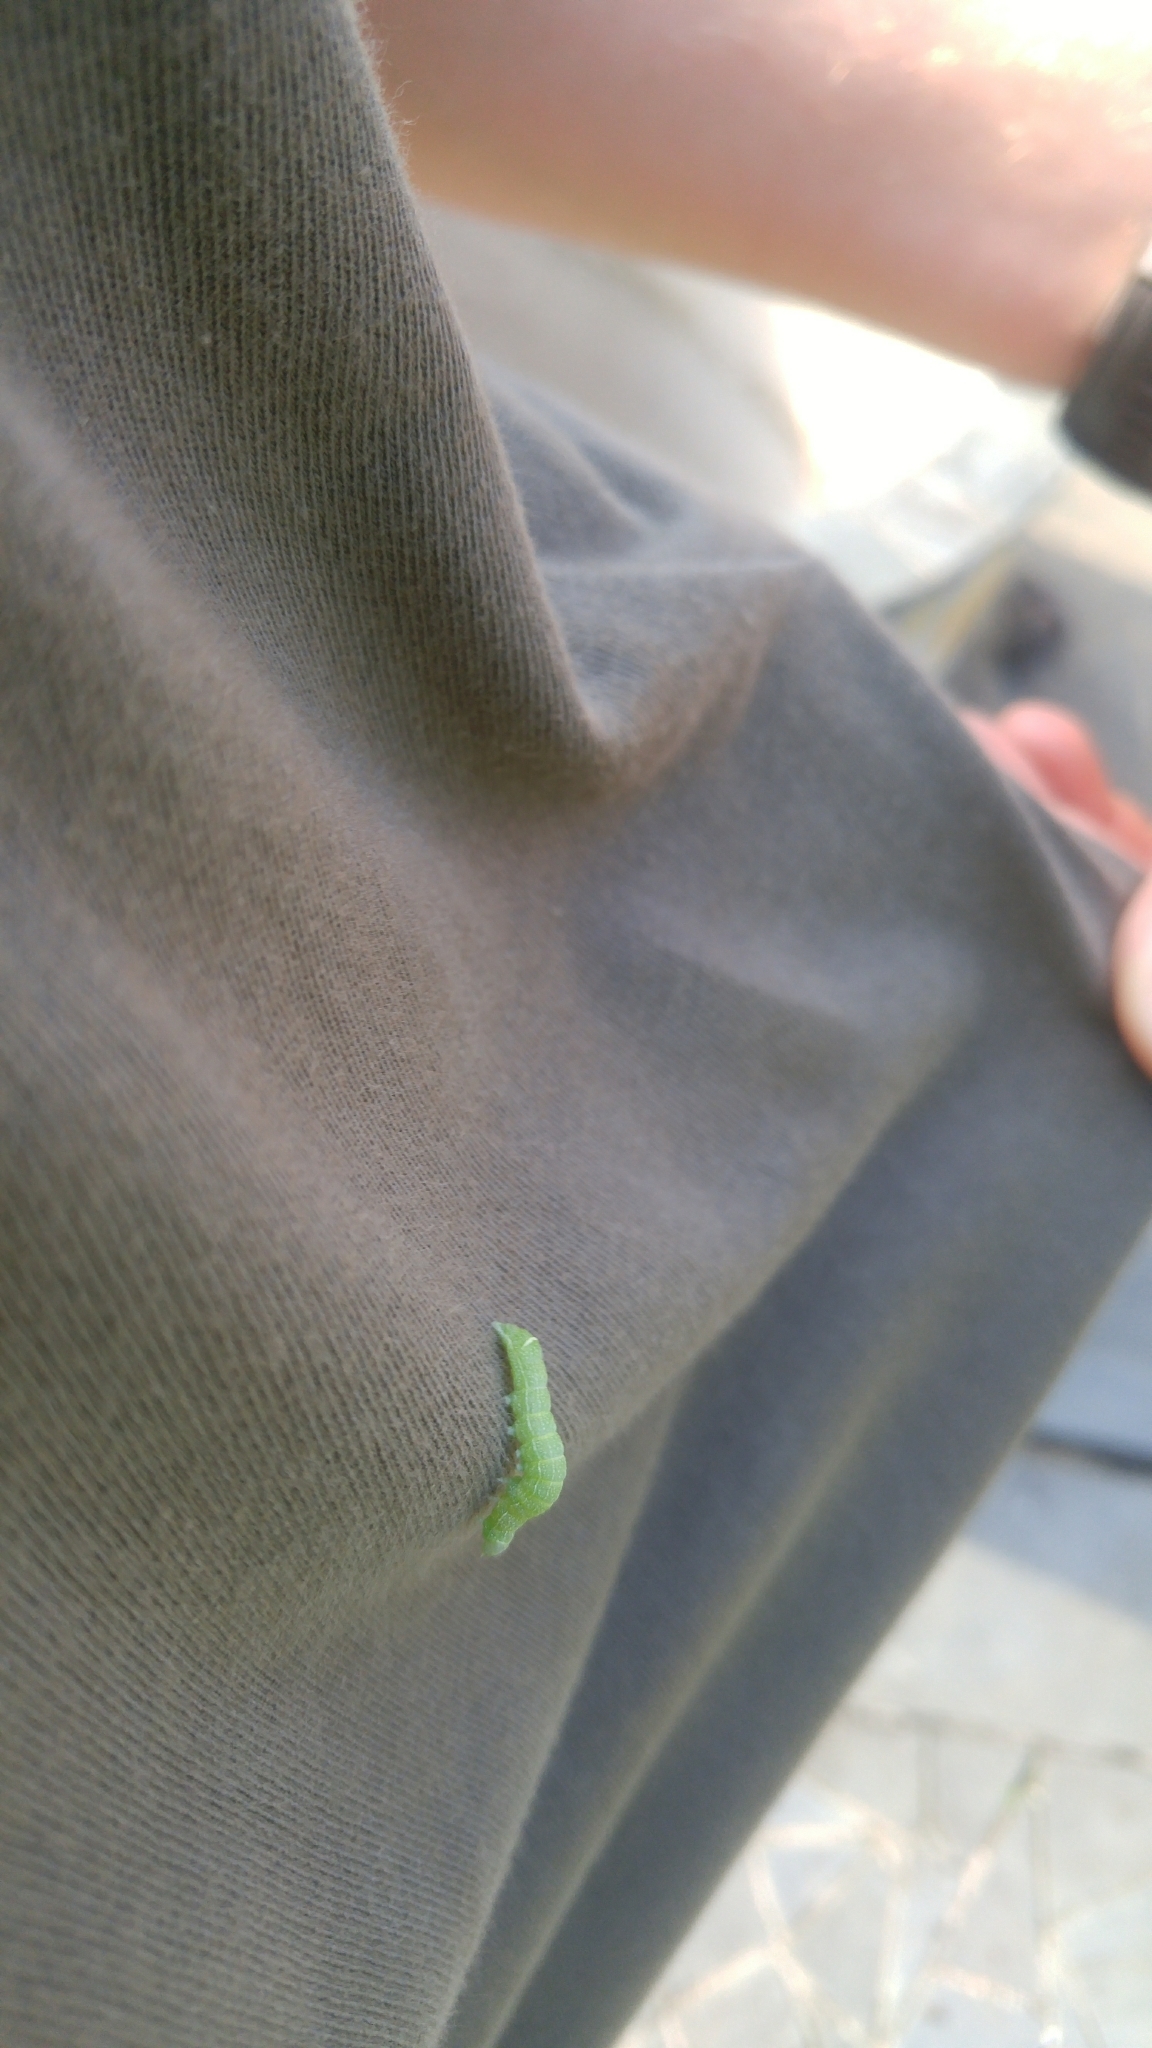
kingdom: Animalia
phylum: Arthropoda
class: Insecta
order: Lepidoptera
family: Noctuidae
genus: Orthosia
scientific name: Orthosia cerasi
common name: Common quaker
